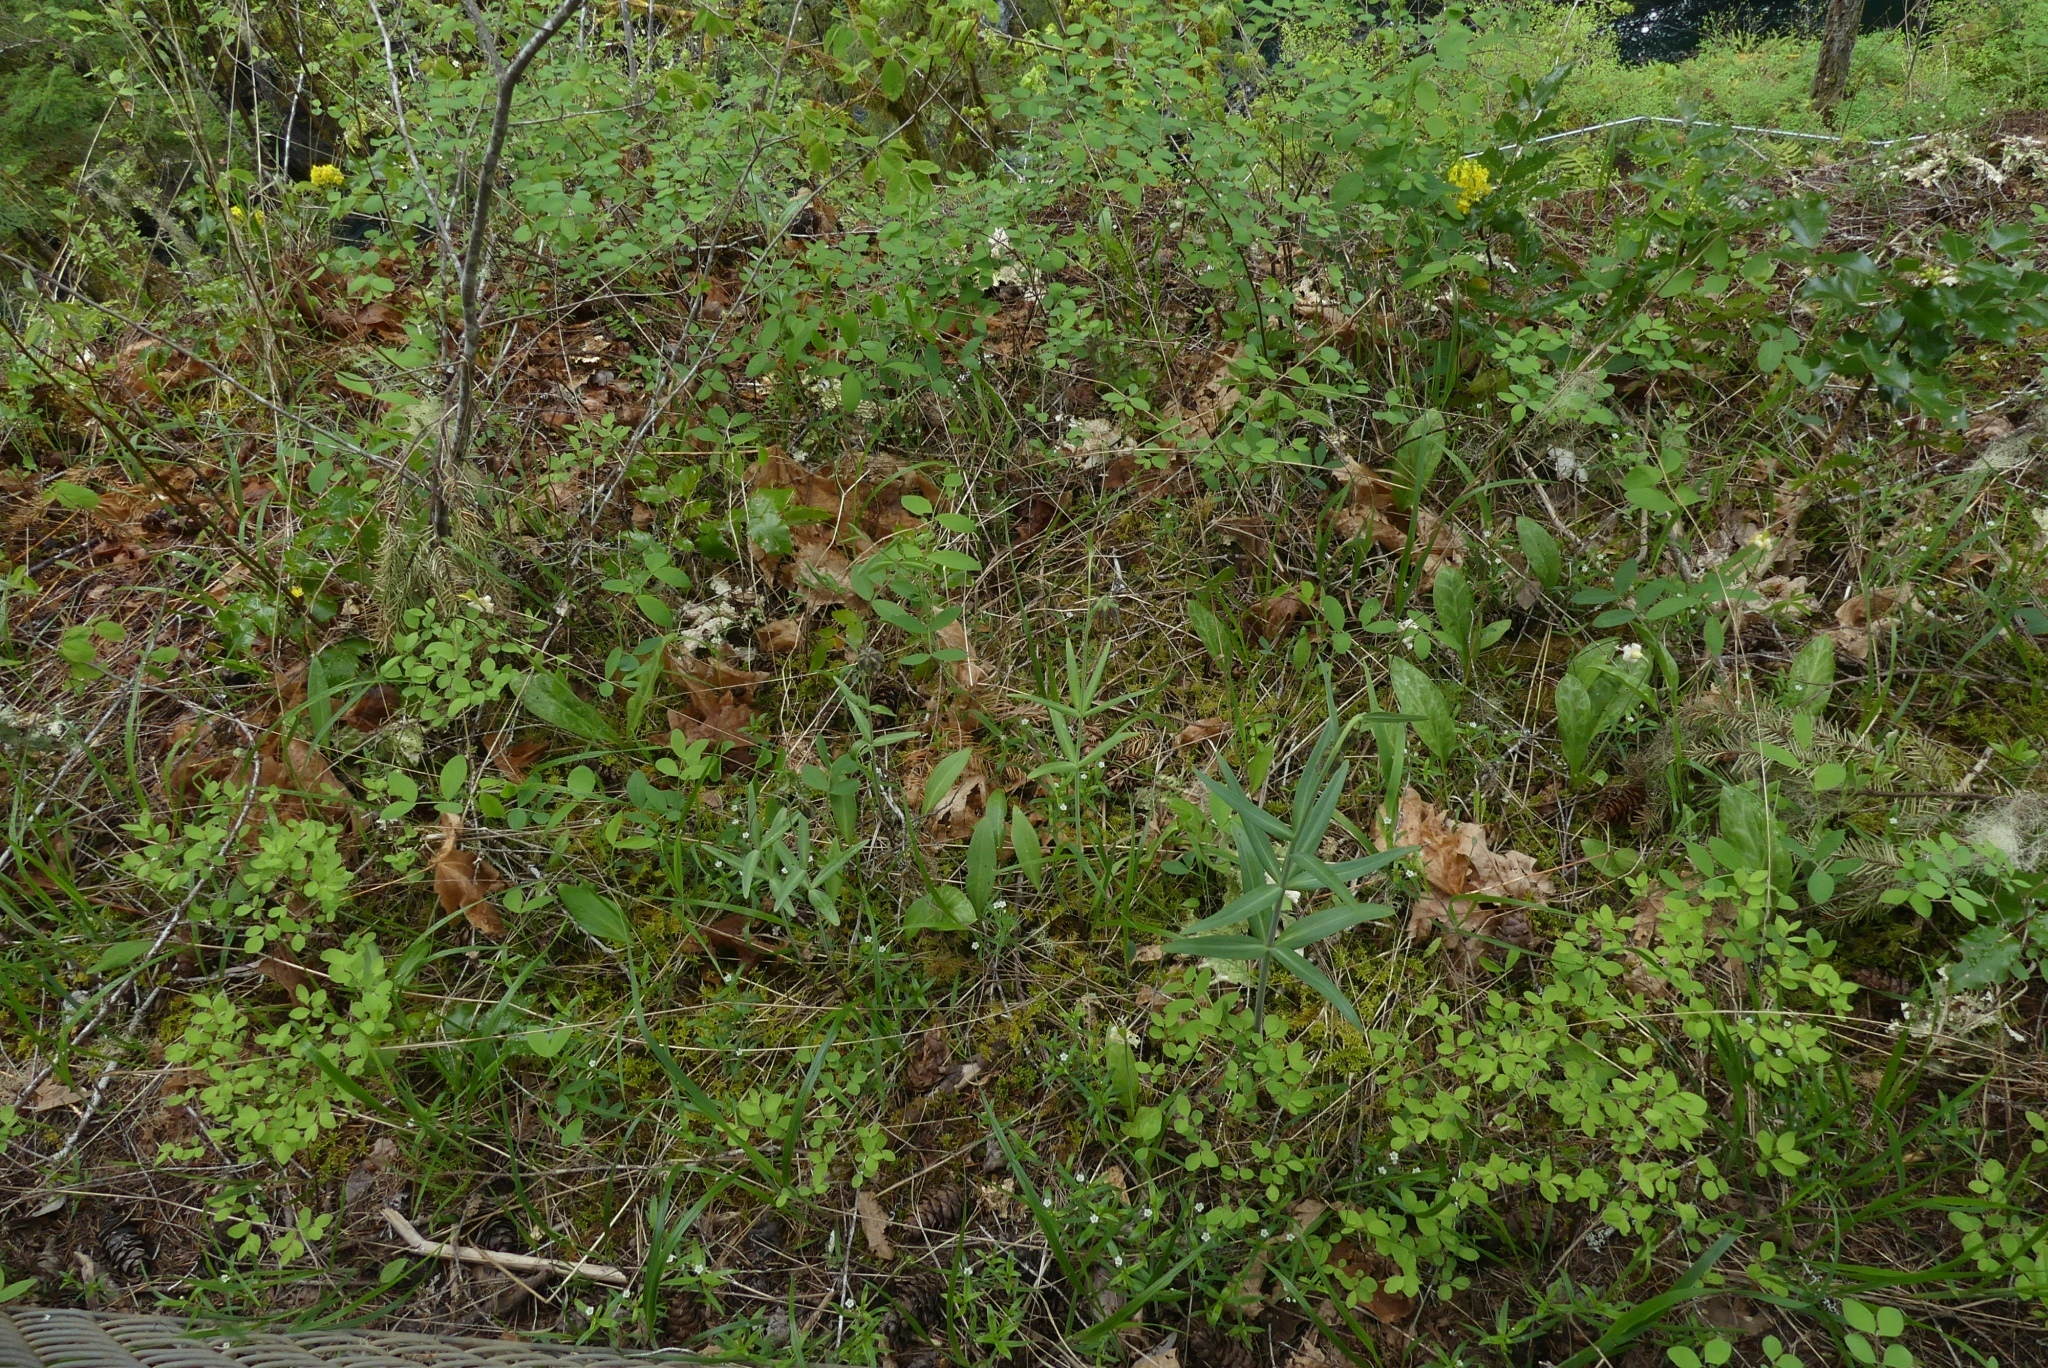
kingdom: Plantae
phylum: Tracheophyta
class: Liliopsida
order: Liliales
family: Liliaceae
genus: Fritillaria
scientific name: Fritillaria affinis
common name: Ojai fritillary
